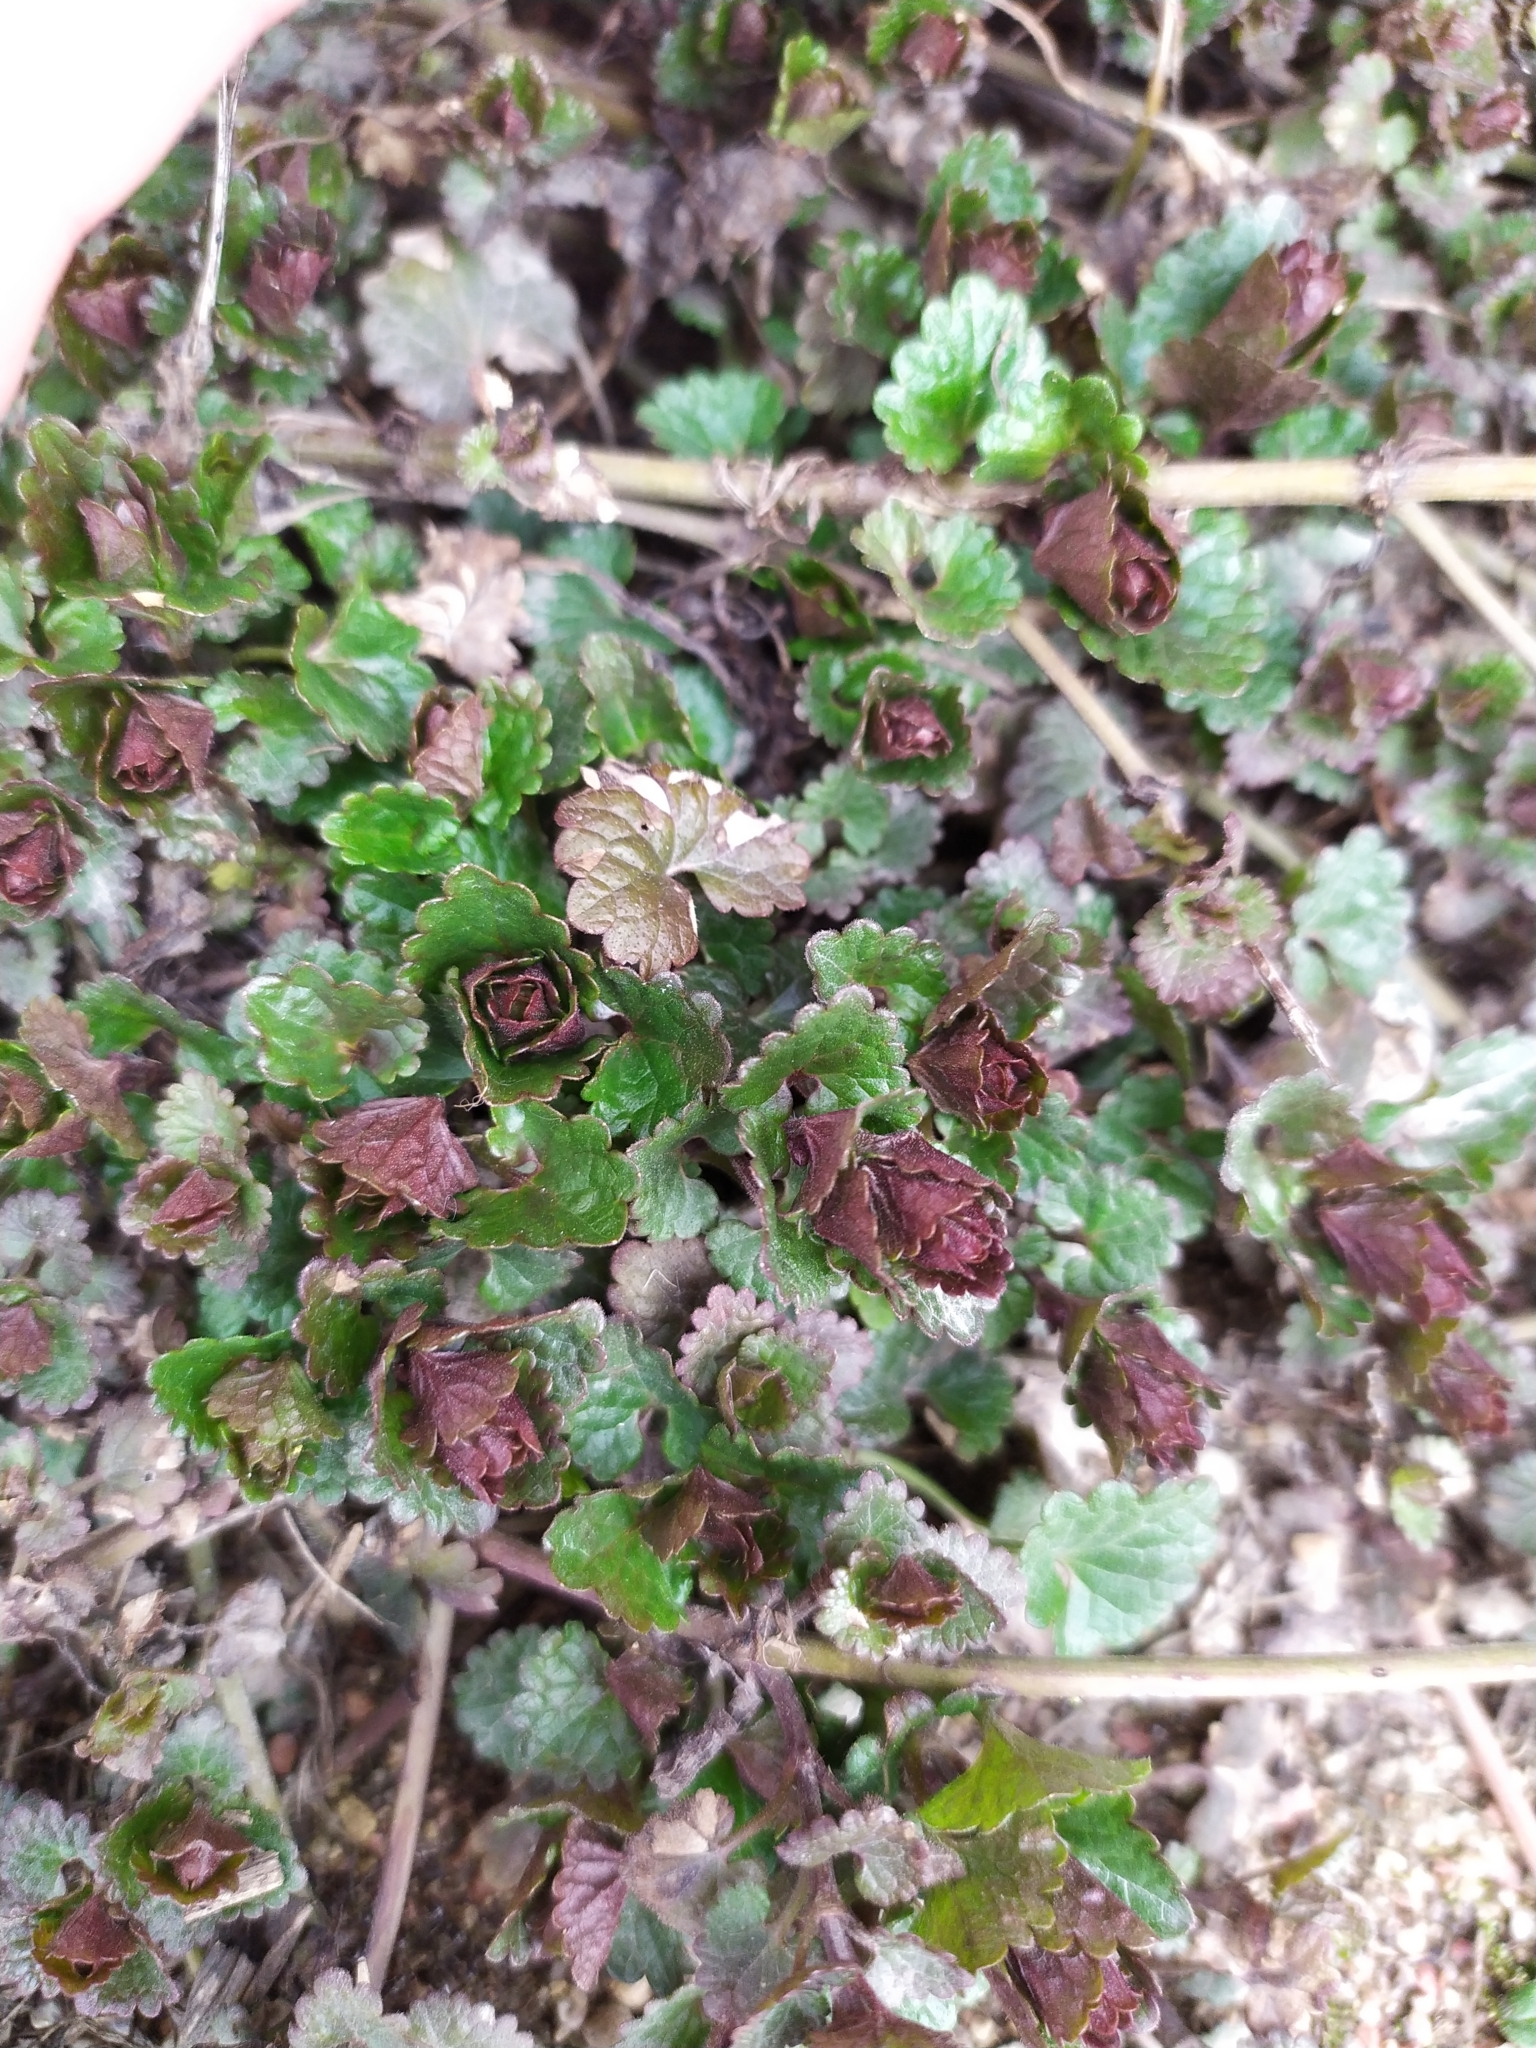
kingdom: Plantae
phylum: Tracheophyta
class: Magnoliopsida
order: Lamiales
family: Lamiaceae
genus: Glechoma
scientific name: Glechoma hederacea
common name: Ground ivy
